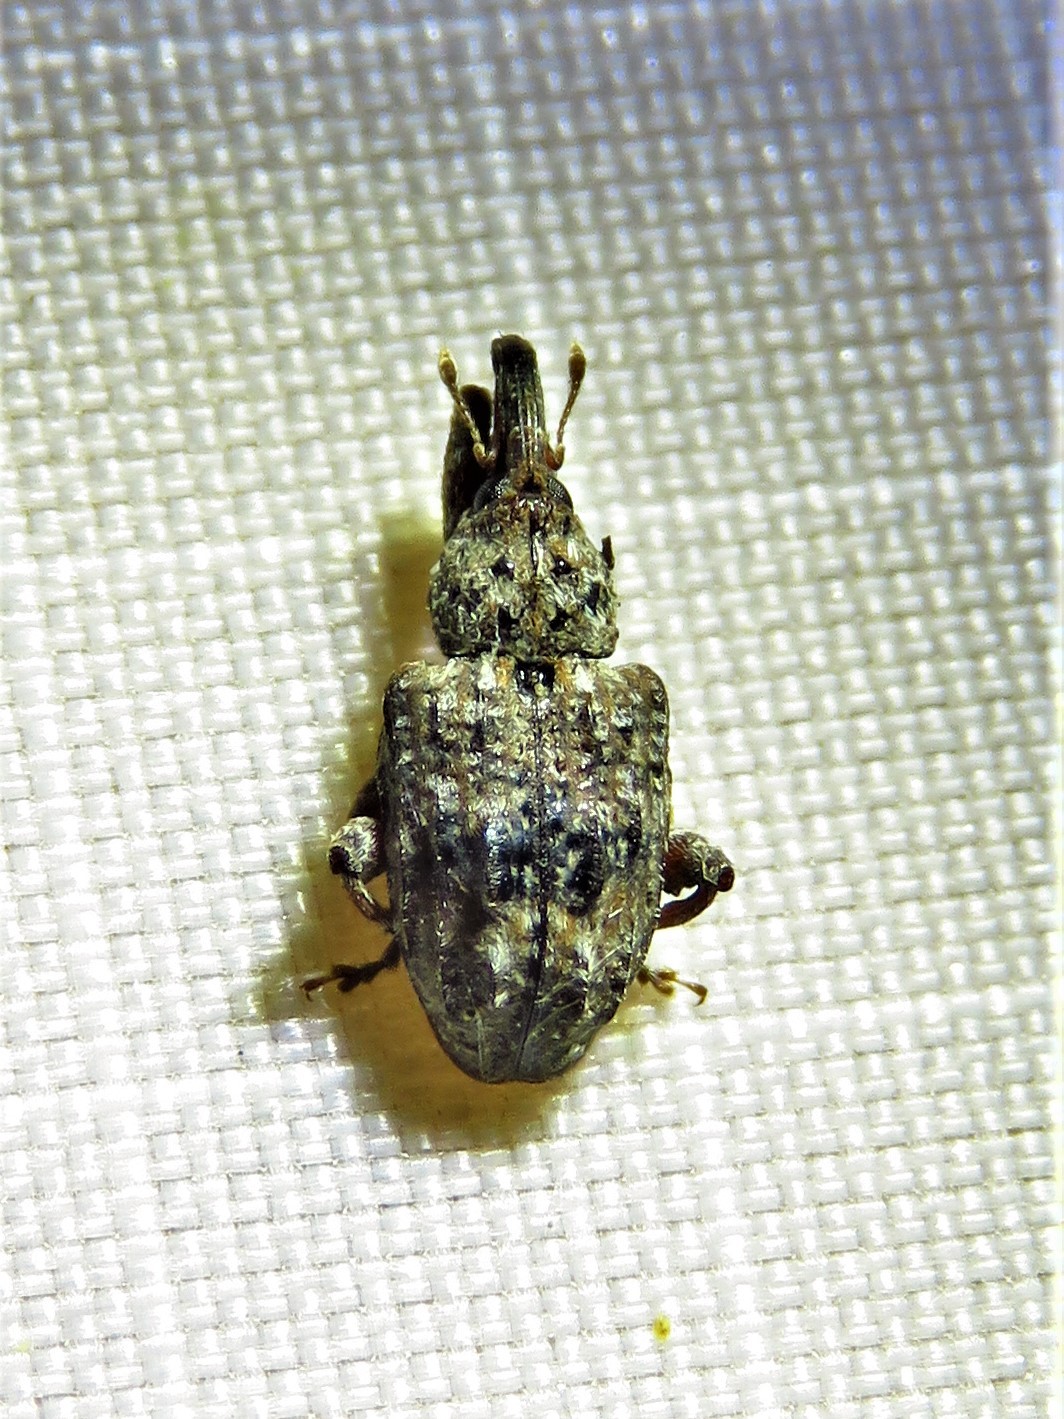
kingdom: Animalia
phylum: Arthropoda
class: Insecta
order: Coleoptera
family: Curculionidae
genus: Conotrachelus
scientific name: Conotrachelus nenuphar
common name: Plum curculio
